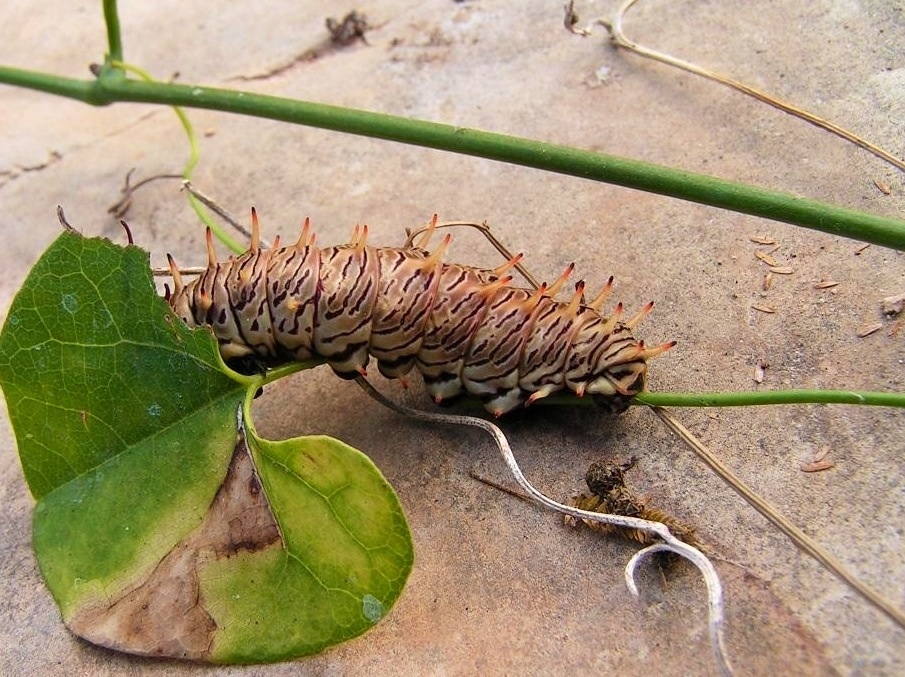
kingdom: Animalia
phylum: Arthropoda
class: Insecta
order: Lepidoptera
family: Papilionidae
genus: Battus
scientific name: Battus polydamas
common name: Polydamas swallowtail
